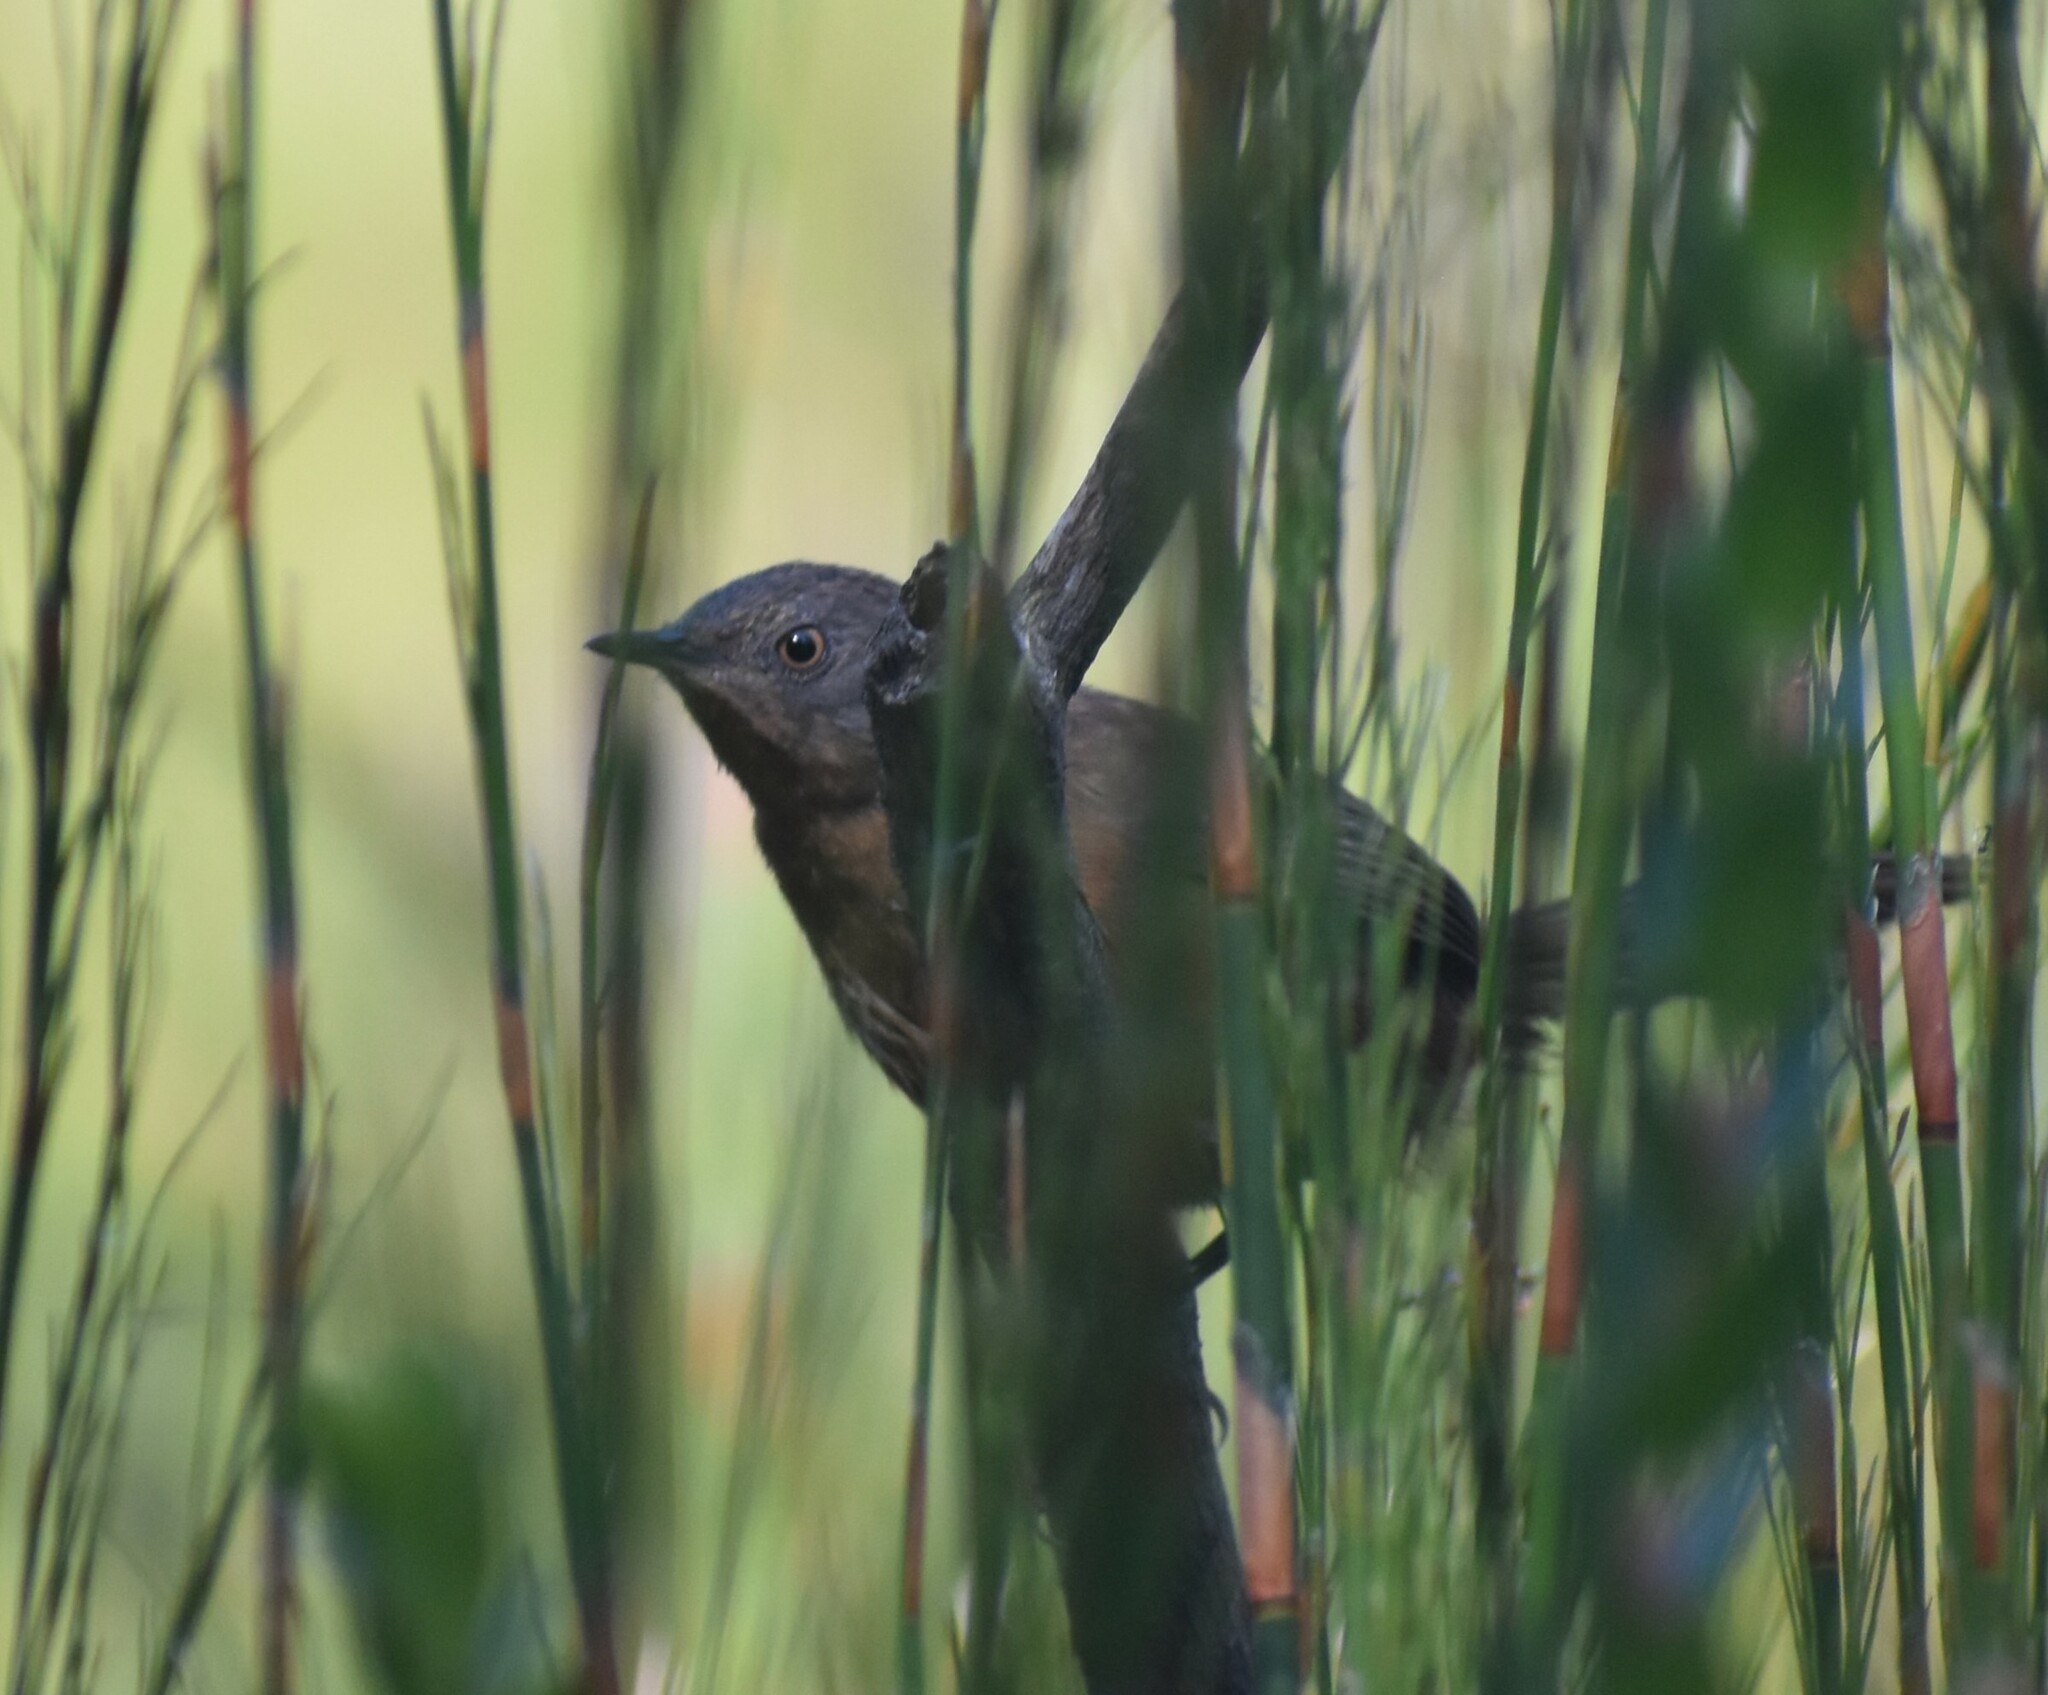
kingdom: Animalia
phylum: Chordata
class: Aves
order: Passeriformes
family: Macrosphenidae
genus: Cryptillas
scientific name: Cryptillas victorini
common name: Victorin's warbler
